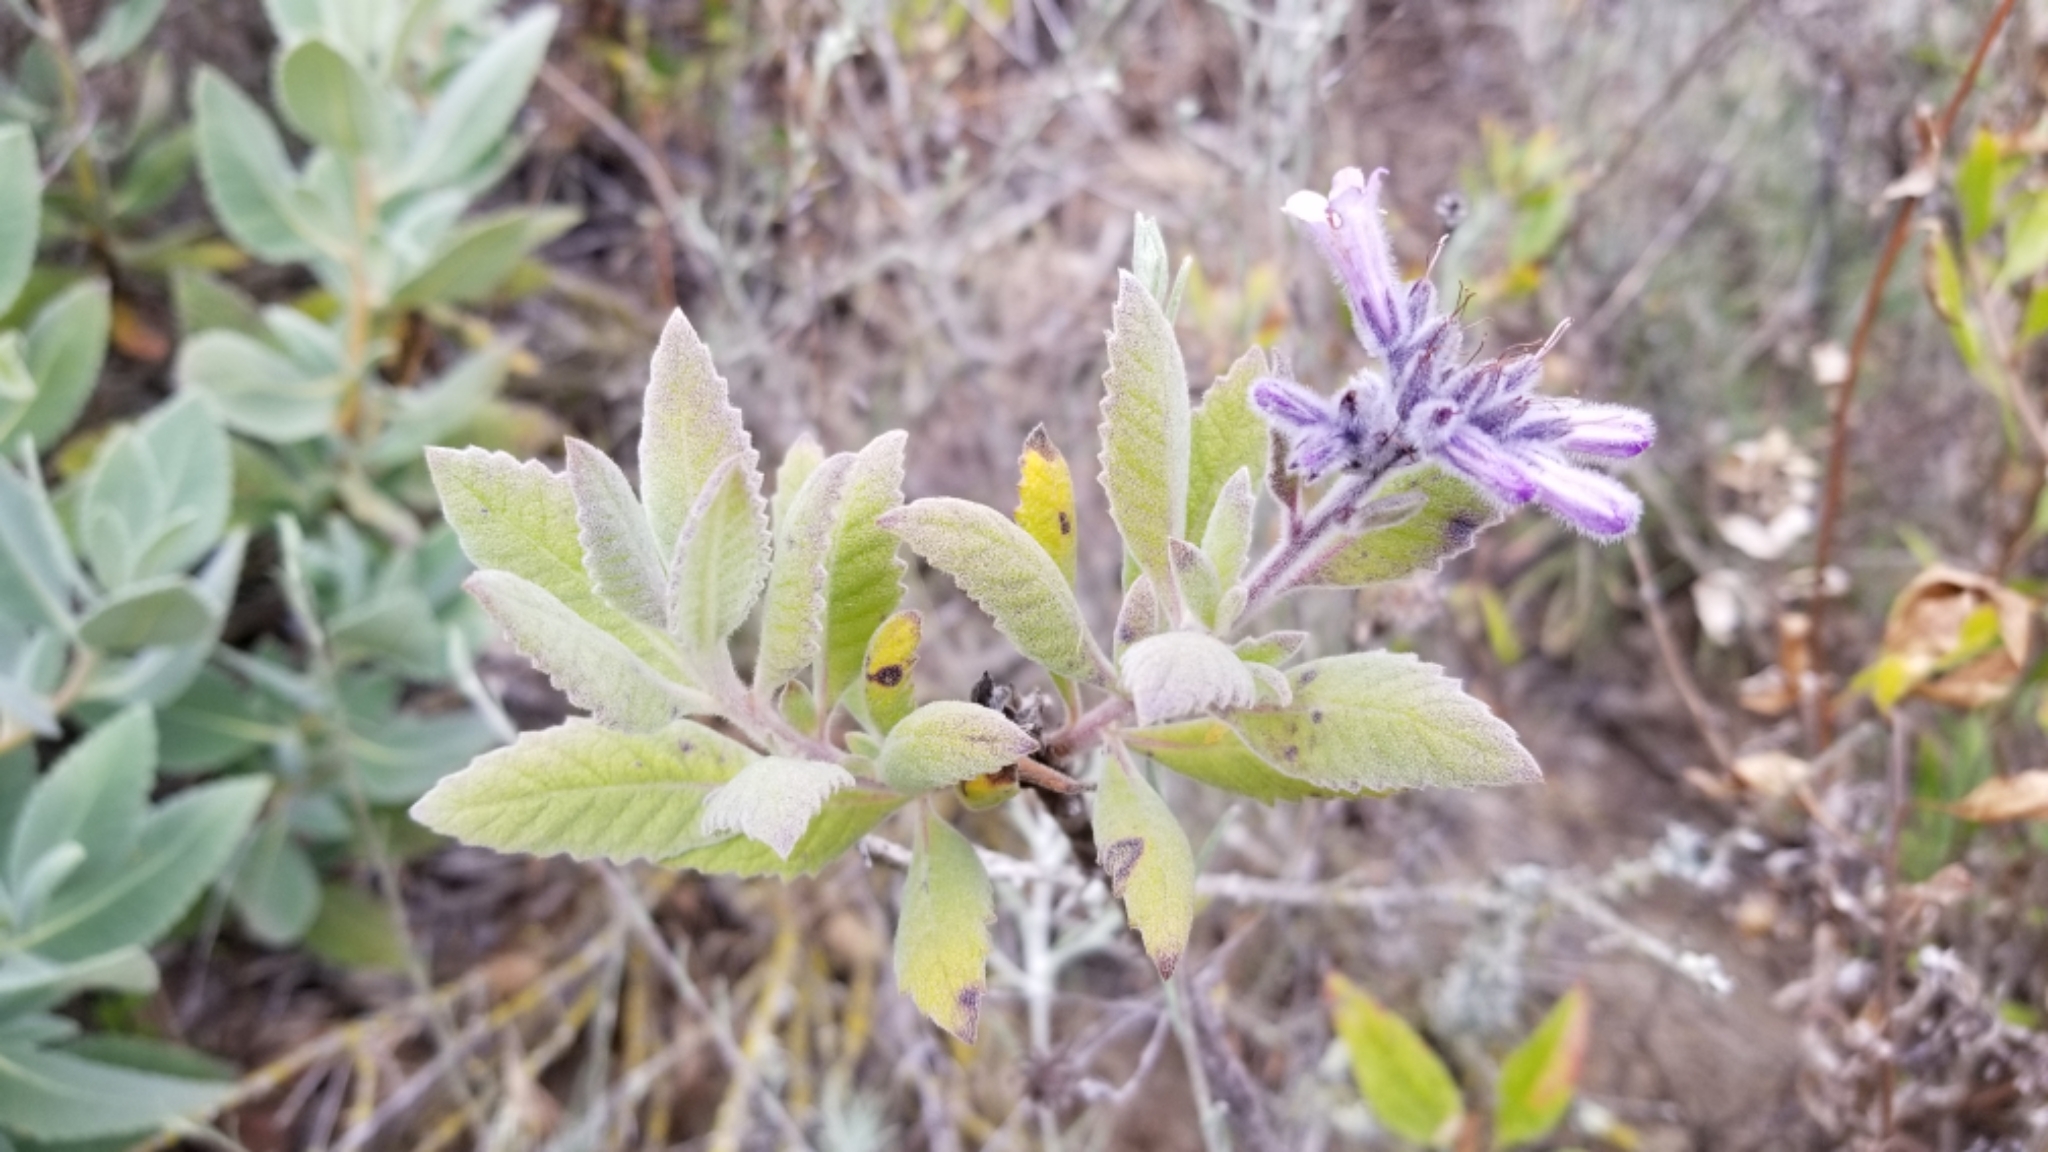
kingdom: Plantae
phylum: Tracheophyta
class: Magnoliopsida
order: Boraginales
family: Namaceae
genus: Eriodictyon
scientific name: Eriodictyon crassifolium
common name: Thick-leaf yerba-santa
